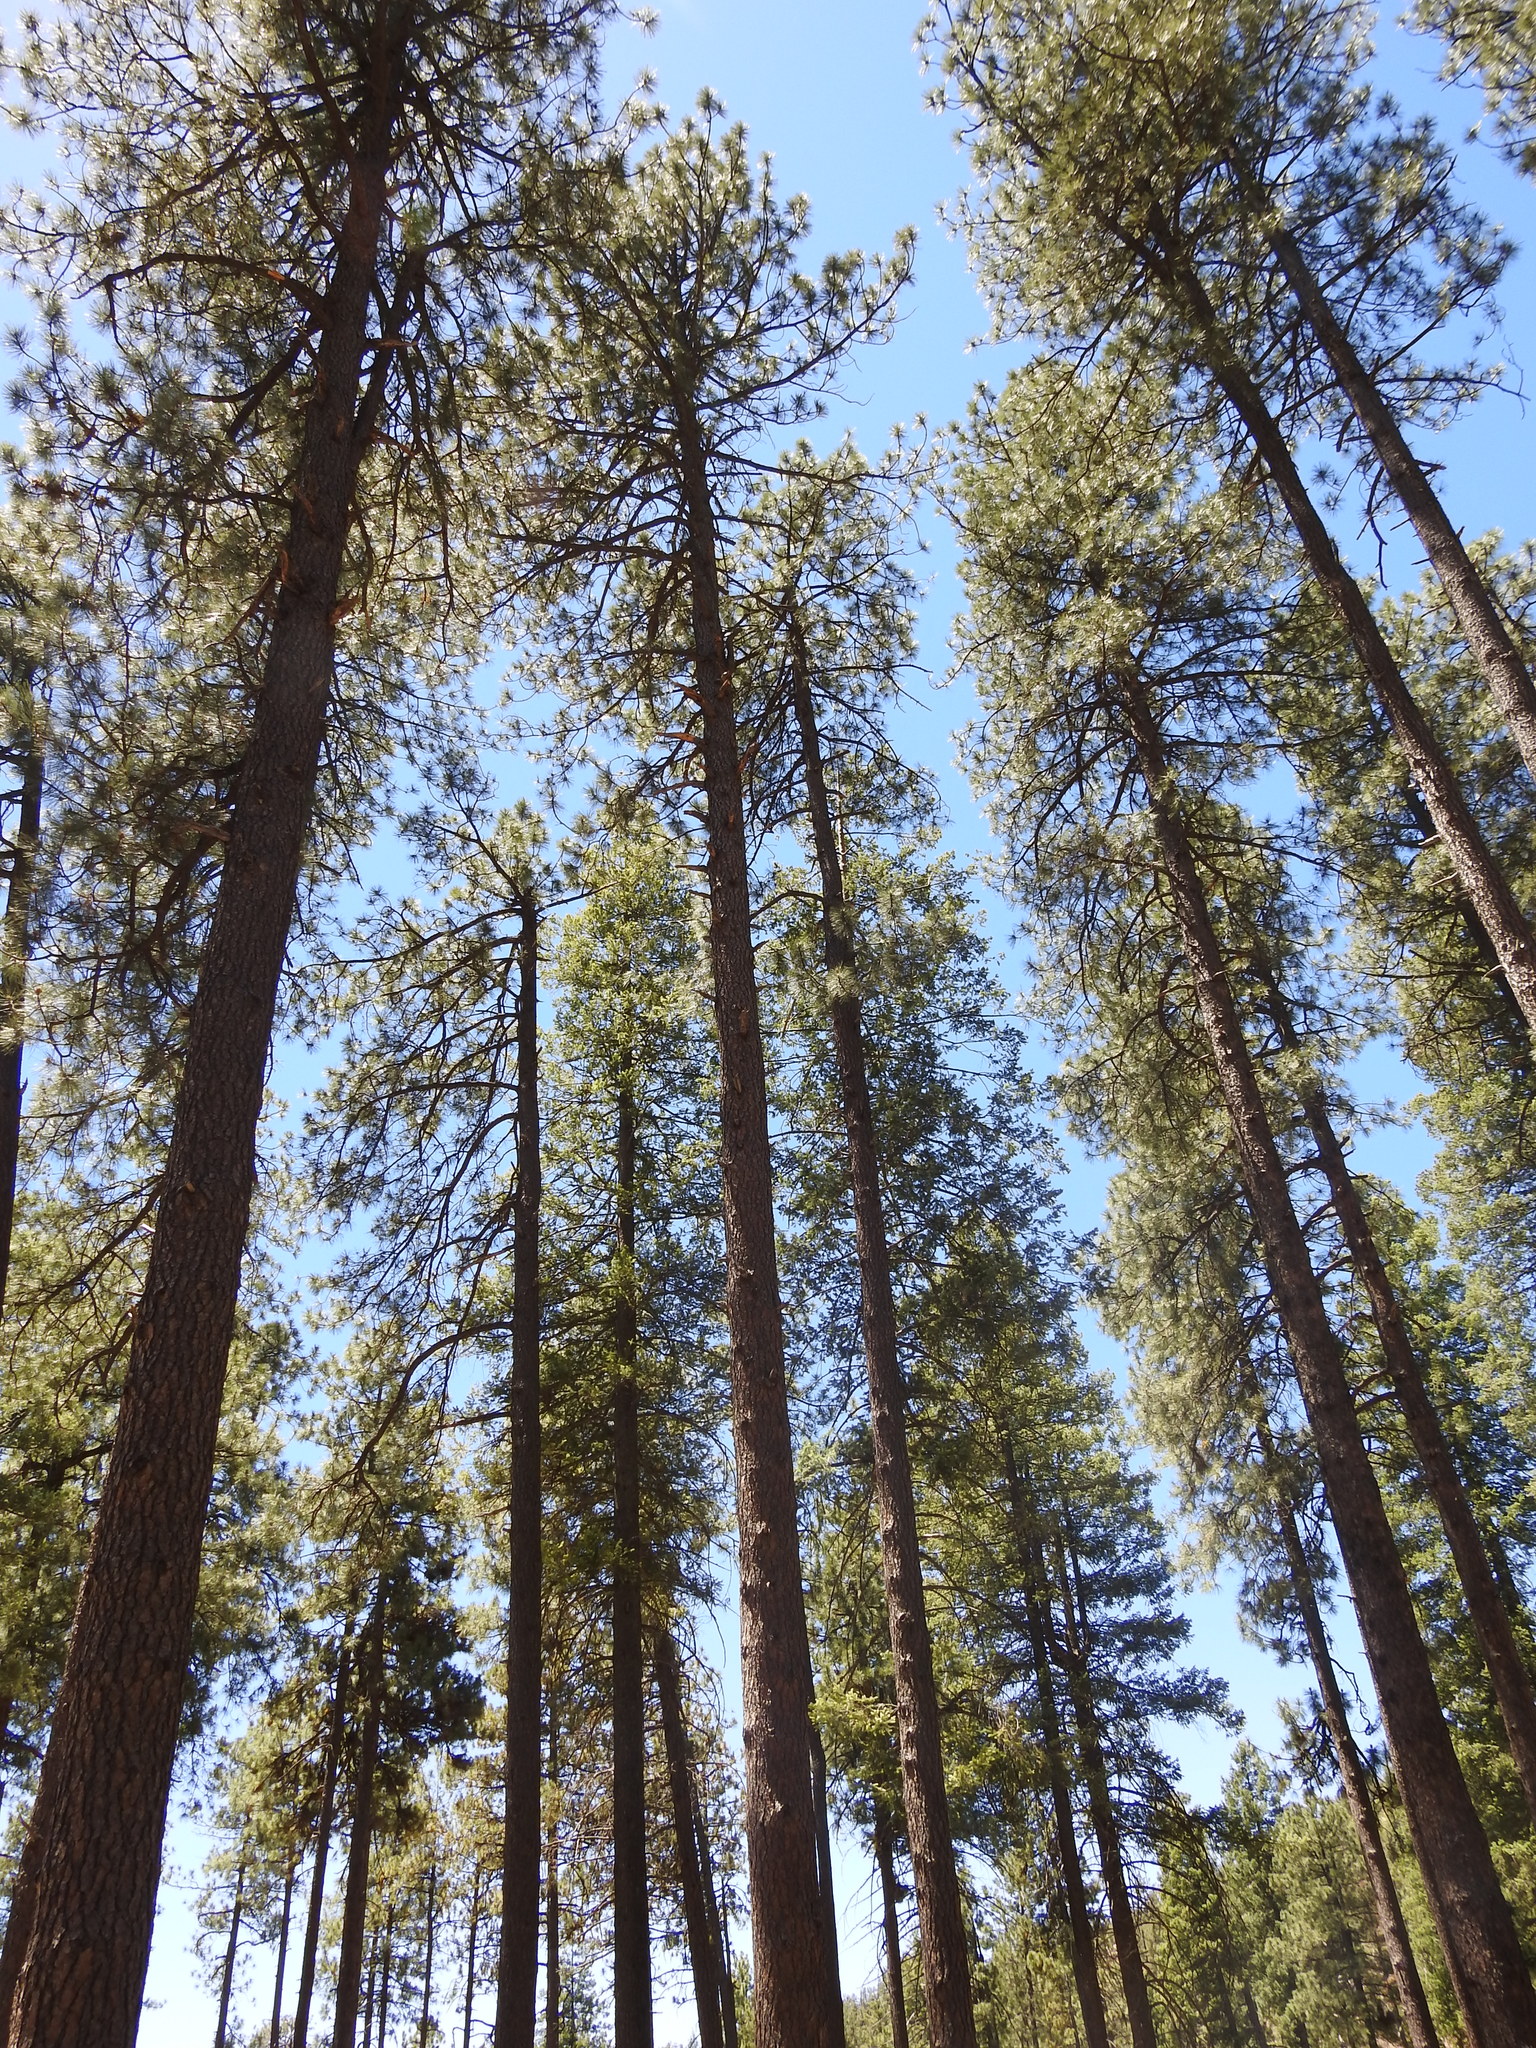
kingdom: Plantae
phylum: Tracheophyta
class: Pinopsida
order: Pinales
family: Pinaceae
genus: Pinus
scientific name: Pinus ponderosa
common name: Western yellow-pine
